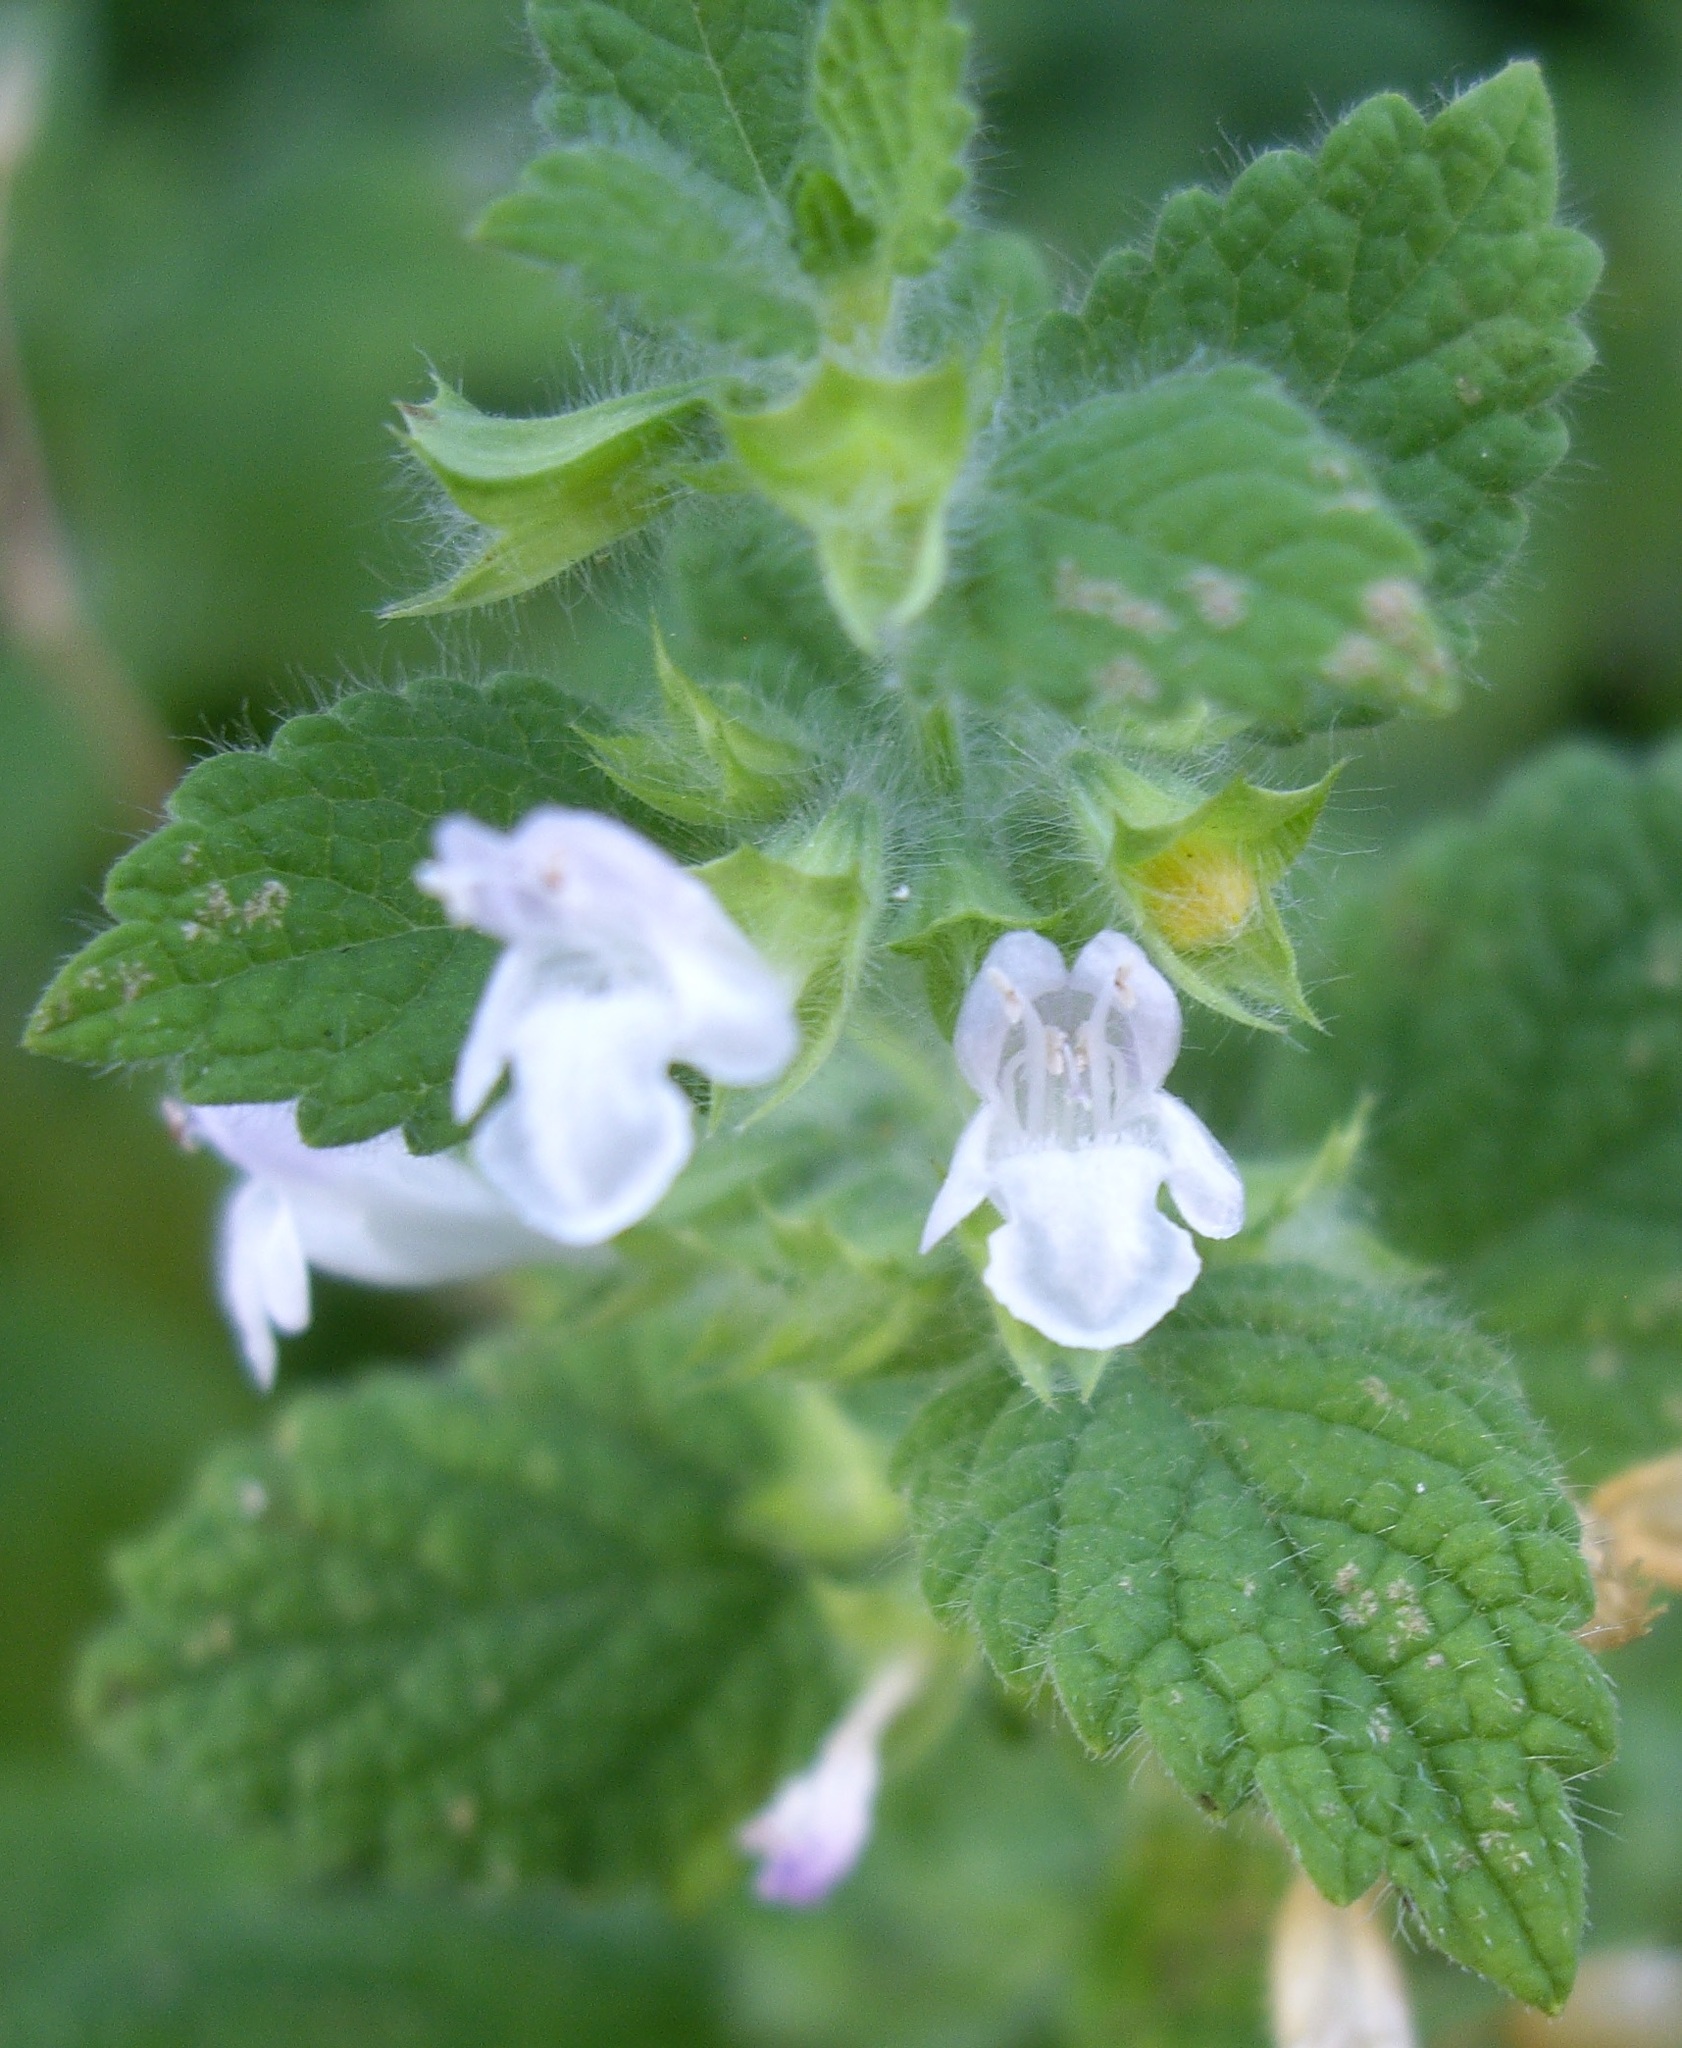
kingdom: Plantae
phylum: Tracheophyta
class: Magnoliopsida
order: Lamiales
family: Lamiaceae
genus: Melissa
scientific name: Melissa officinalis
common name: Balm
